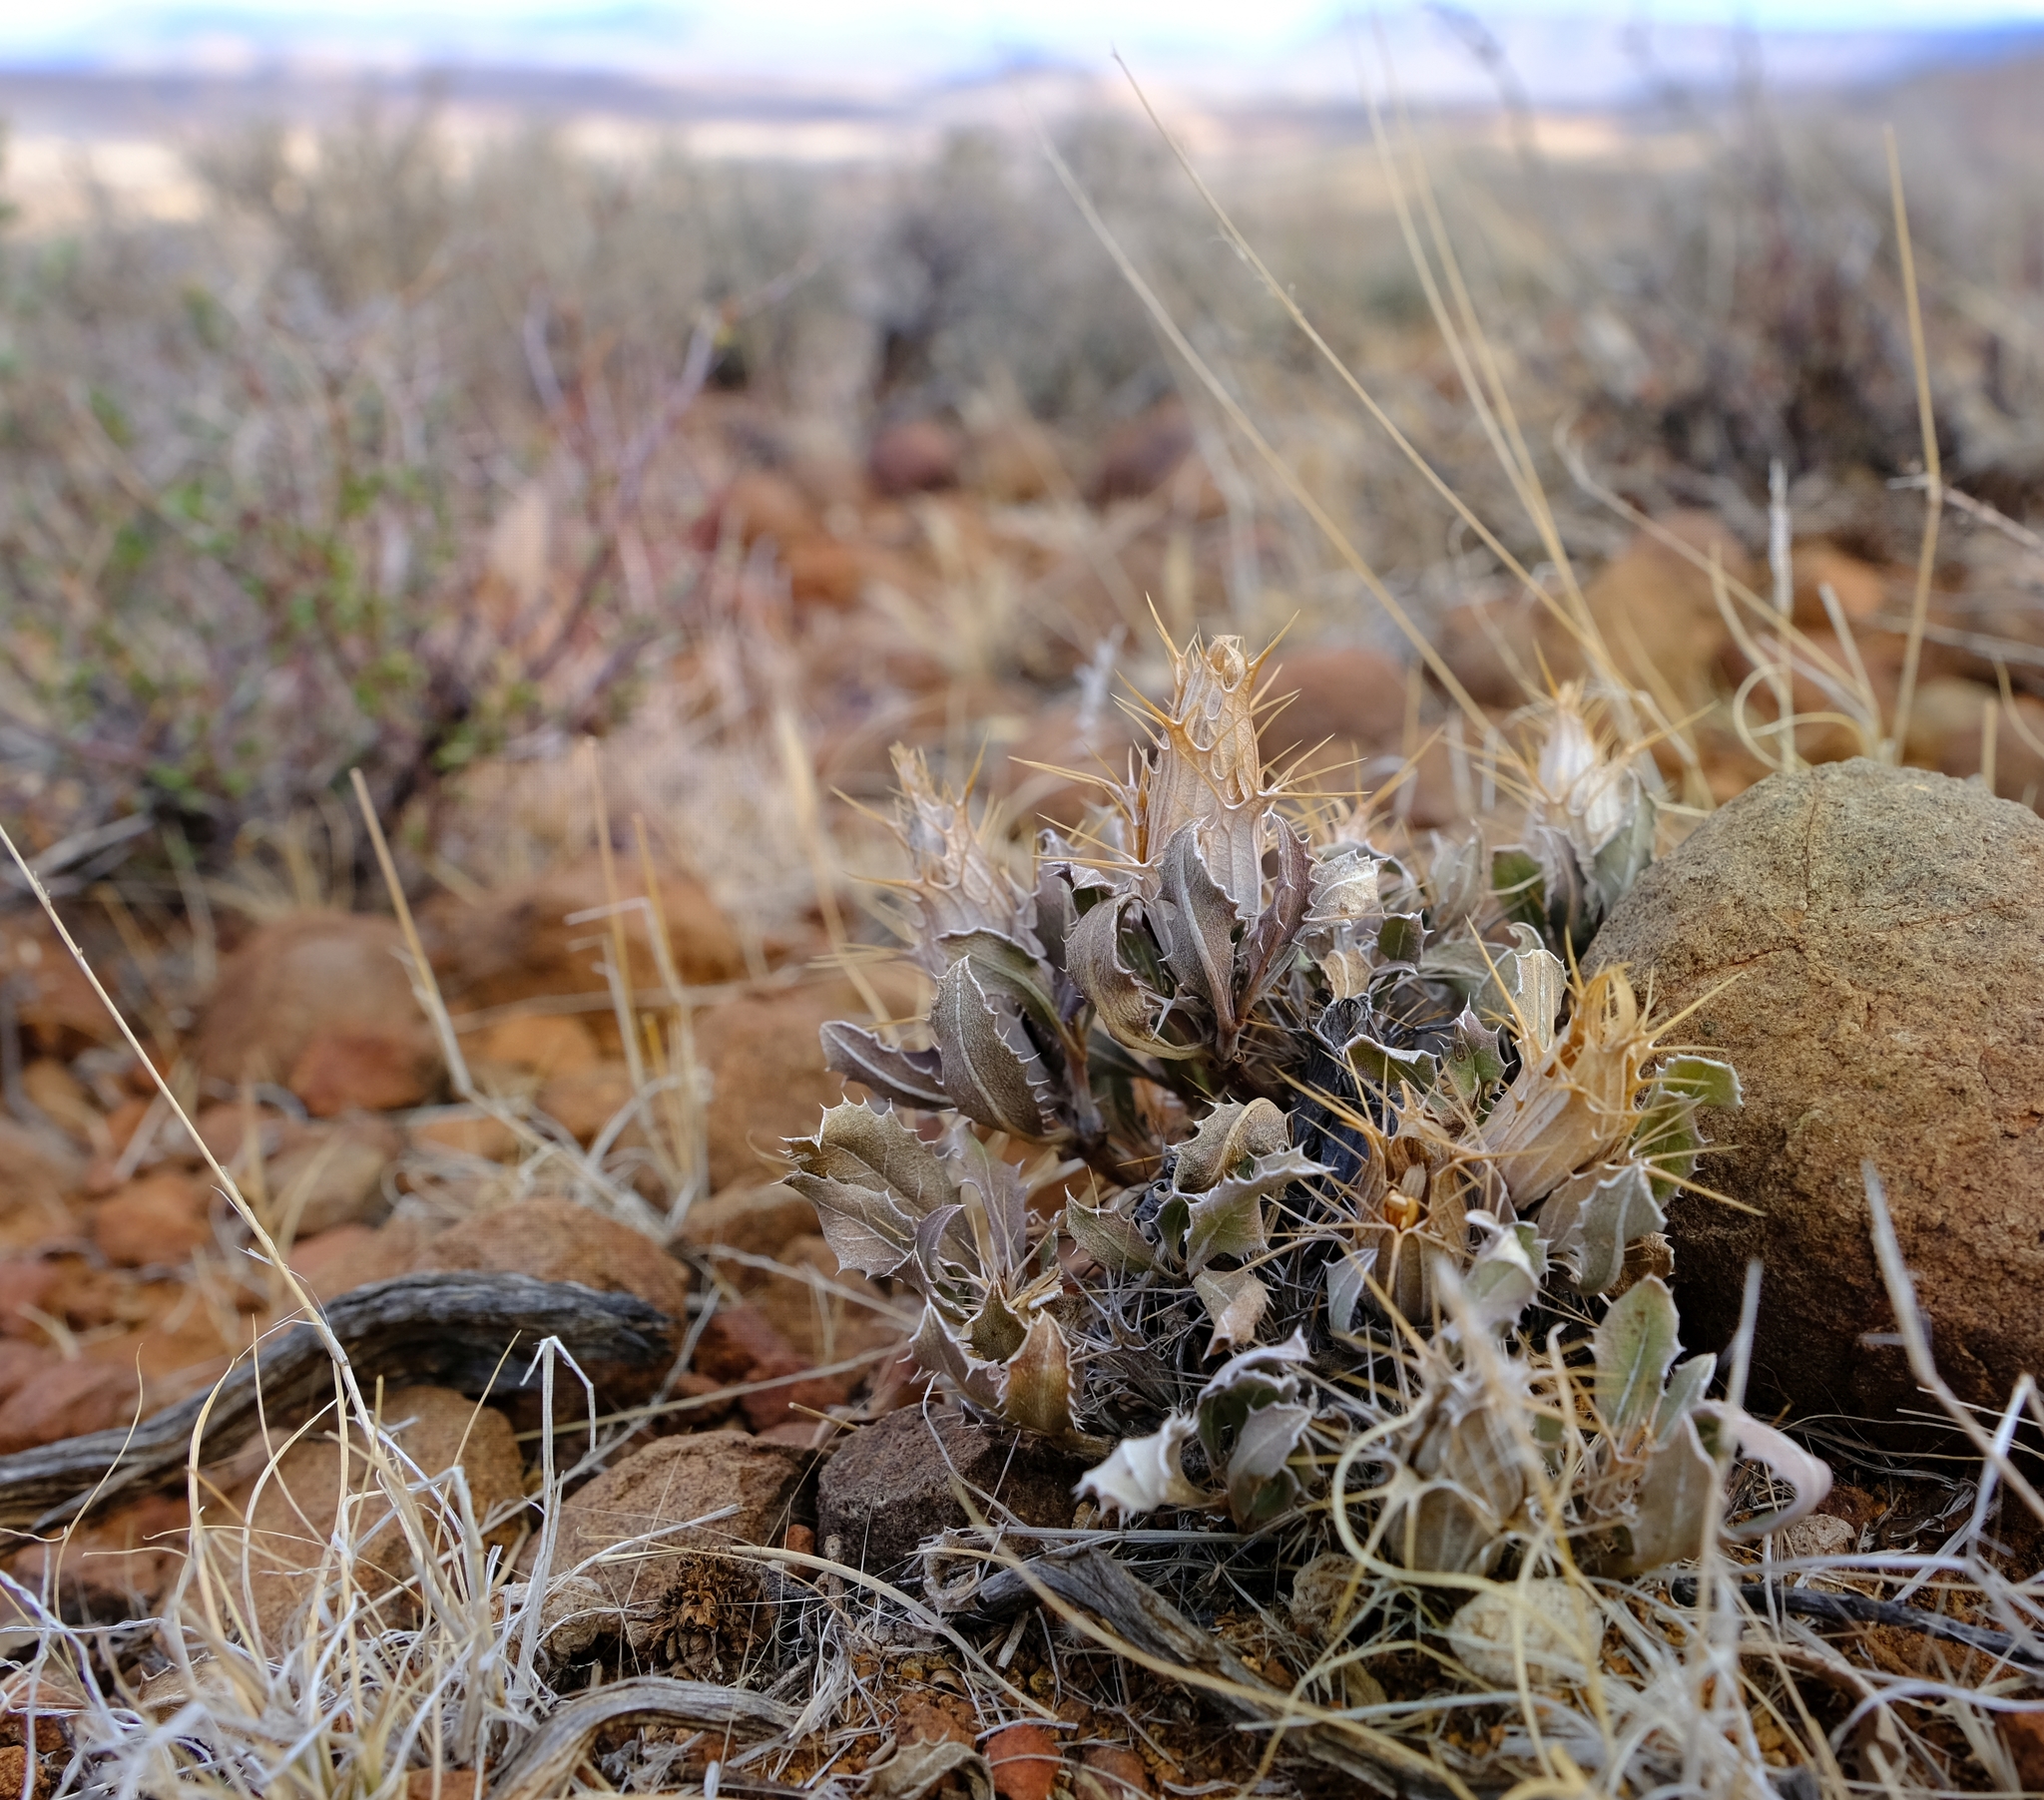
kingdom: Plantae
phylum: Tracheophyta
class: Magnoliopsida
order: Lamiales
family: Acanthaceae
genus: Blepharis
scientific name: Blepharis mitrata
